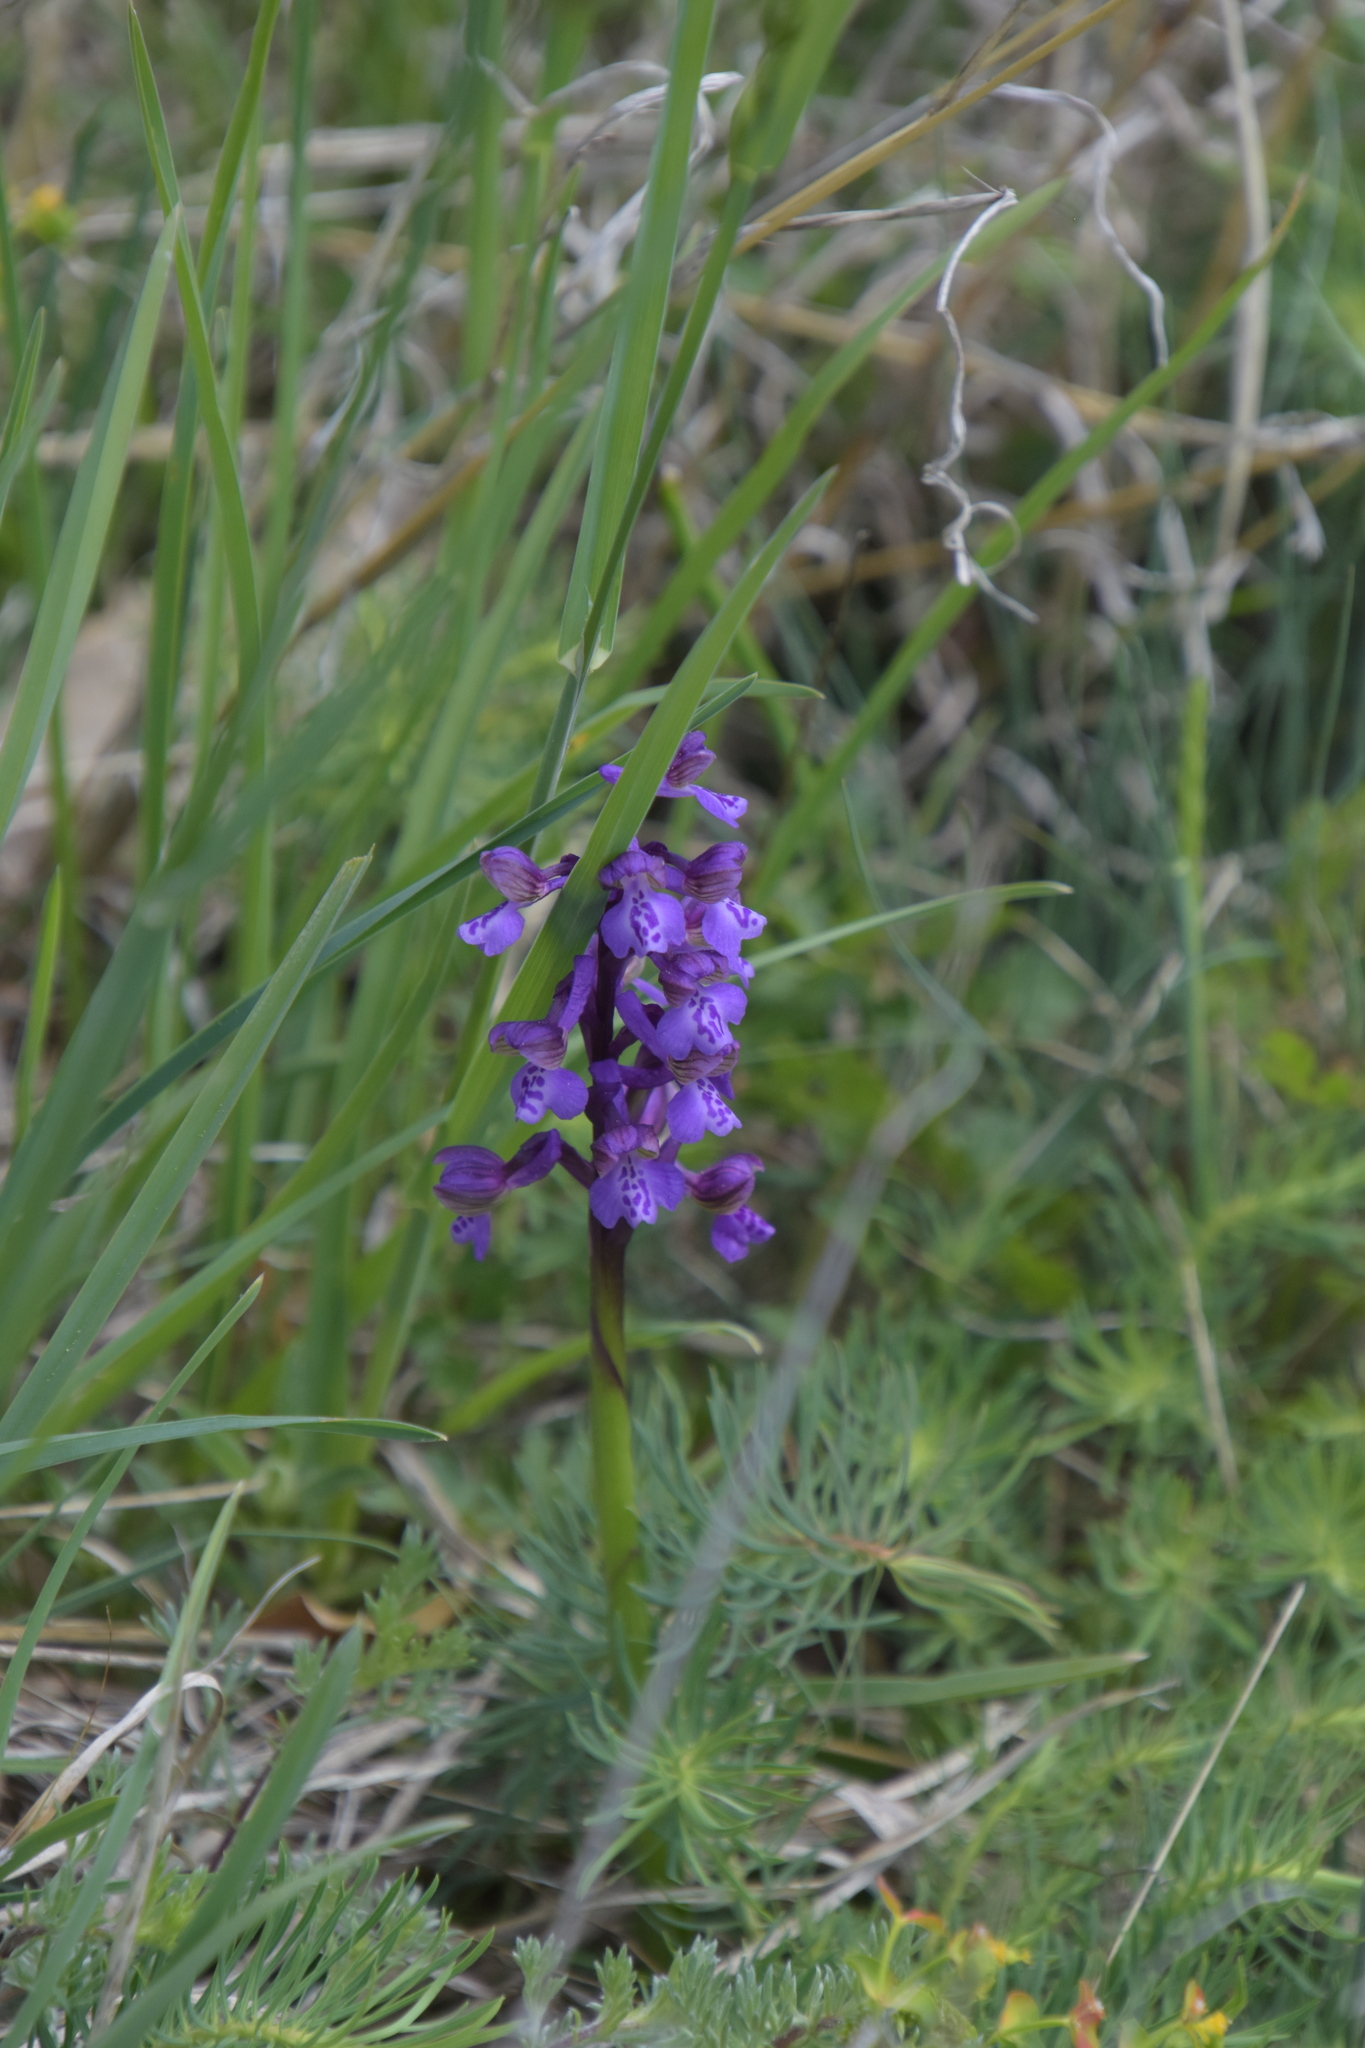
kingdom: Plantae
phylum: Tracheophyta
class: Liliopsida
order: Asparagales
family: Orchidaceae
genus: Anacamptis
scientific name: Anacamptis morio
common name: Green-winged orchid
